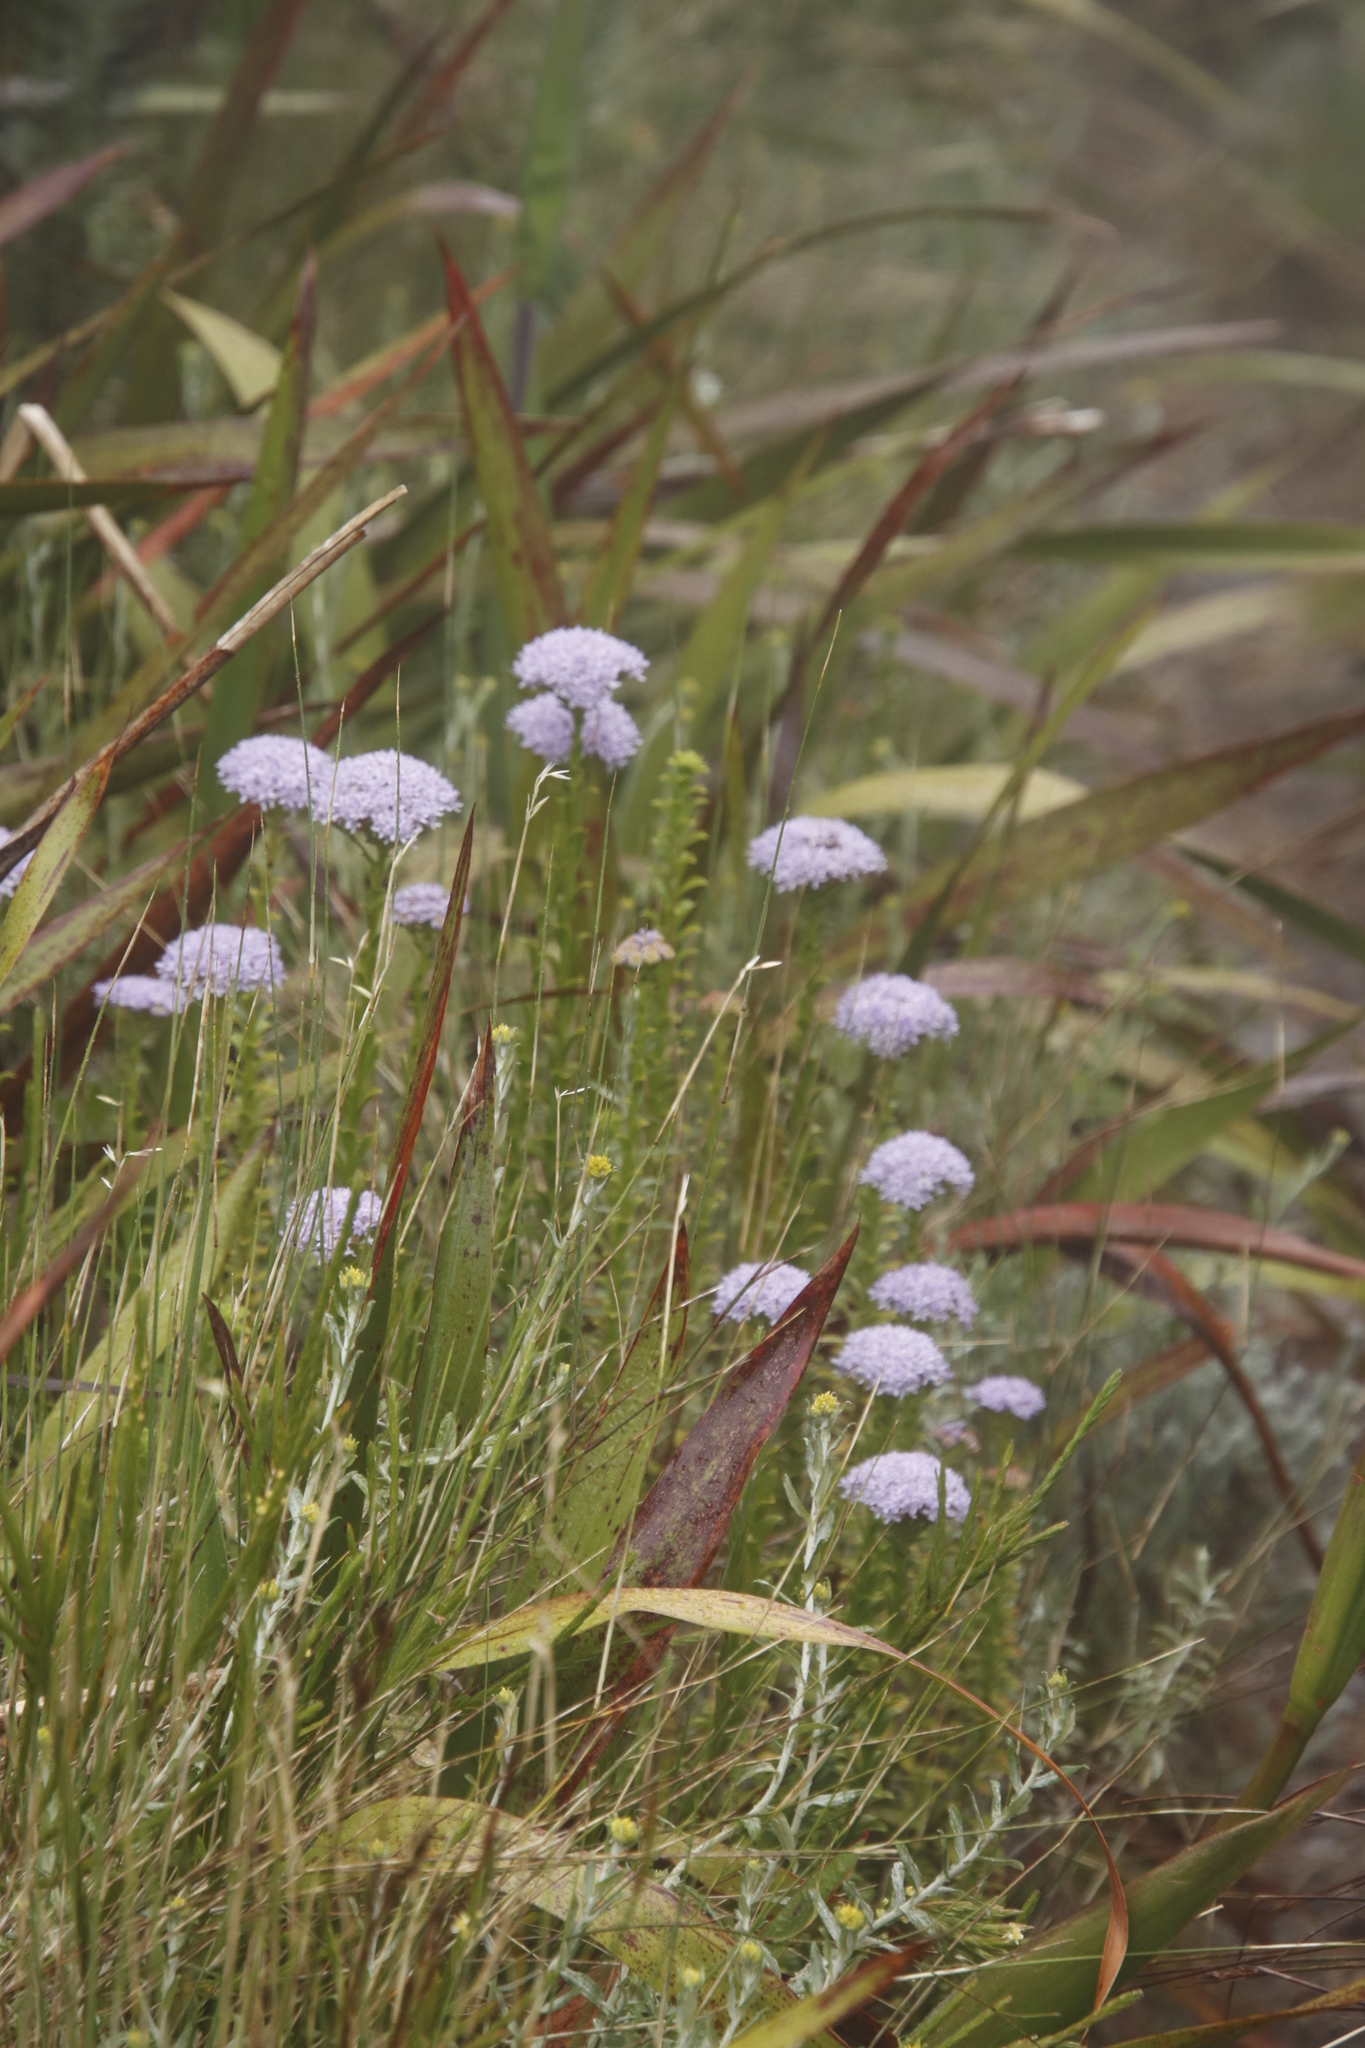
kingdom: Plantae
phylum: Tracheophyta
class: Magnoliopsida
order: Lamiales
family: Scrophulariaceae
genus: Pseudoselago
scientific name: Pseudoselago serrata
